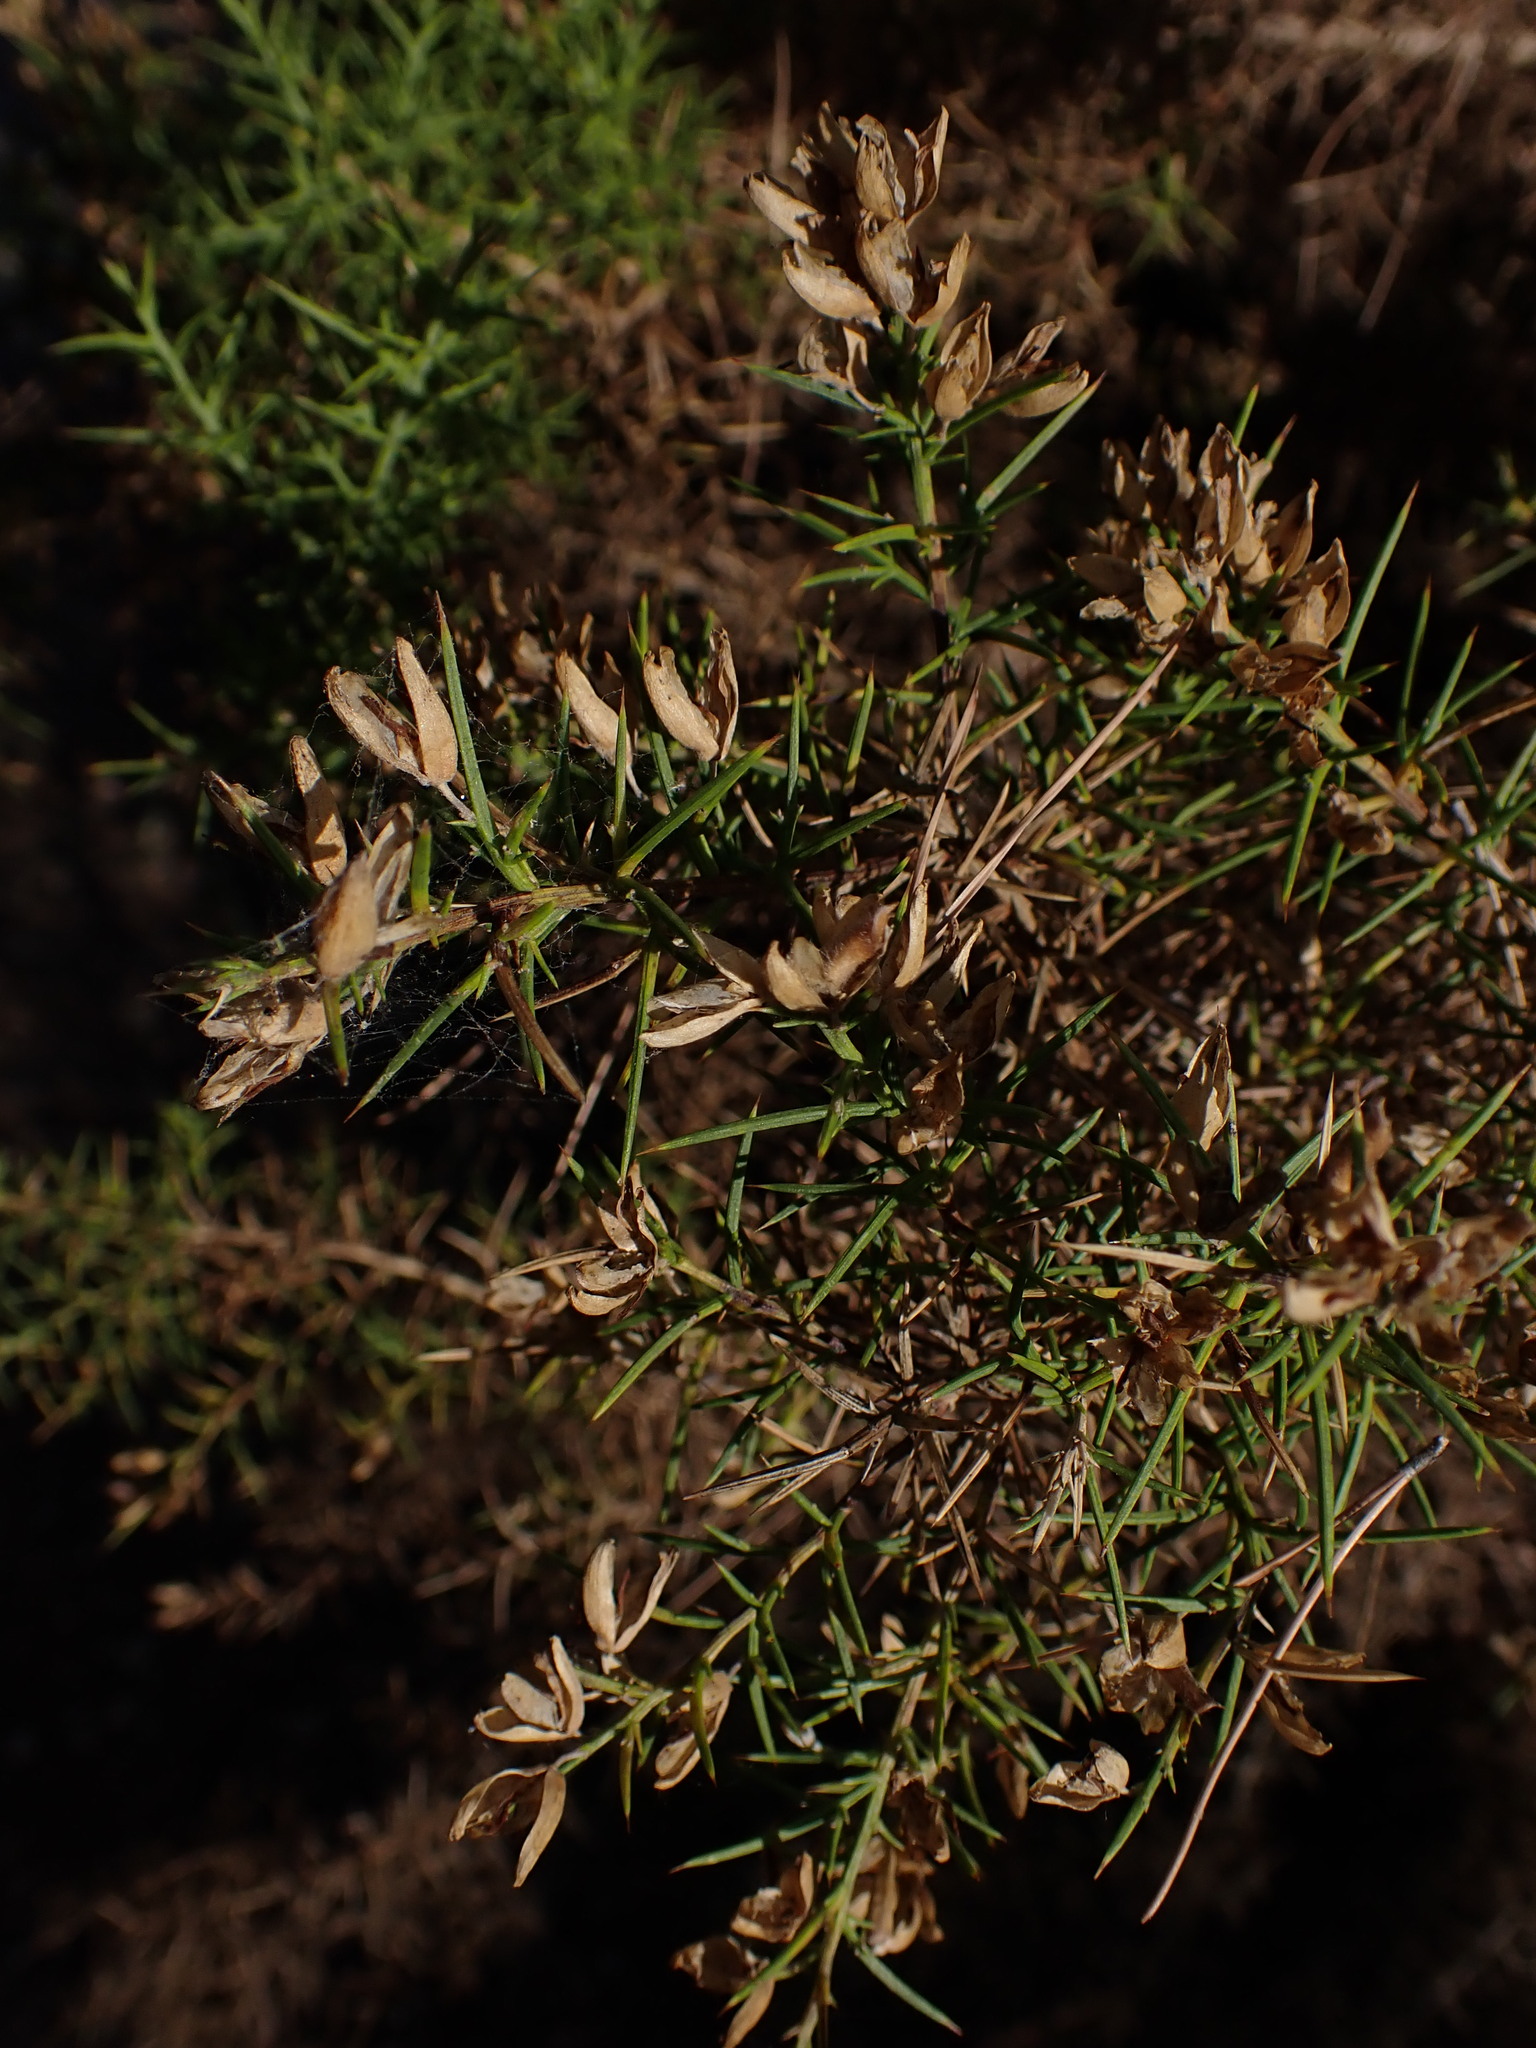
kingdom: Plantae
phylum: Tracheophyta
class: Magnoliopsida
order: Fabales
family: Fabaceae
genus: Ulex
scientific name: Ulex parviflorus
